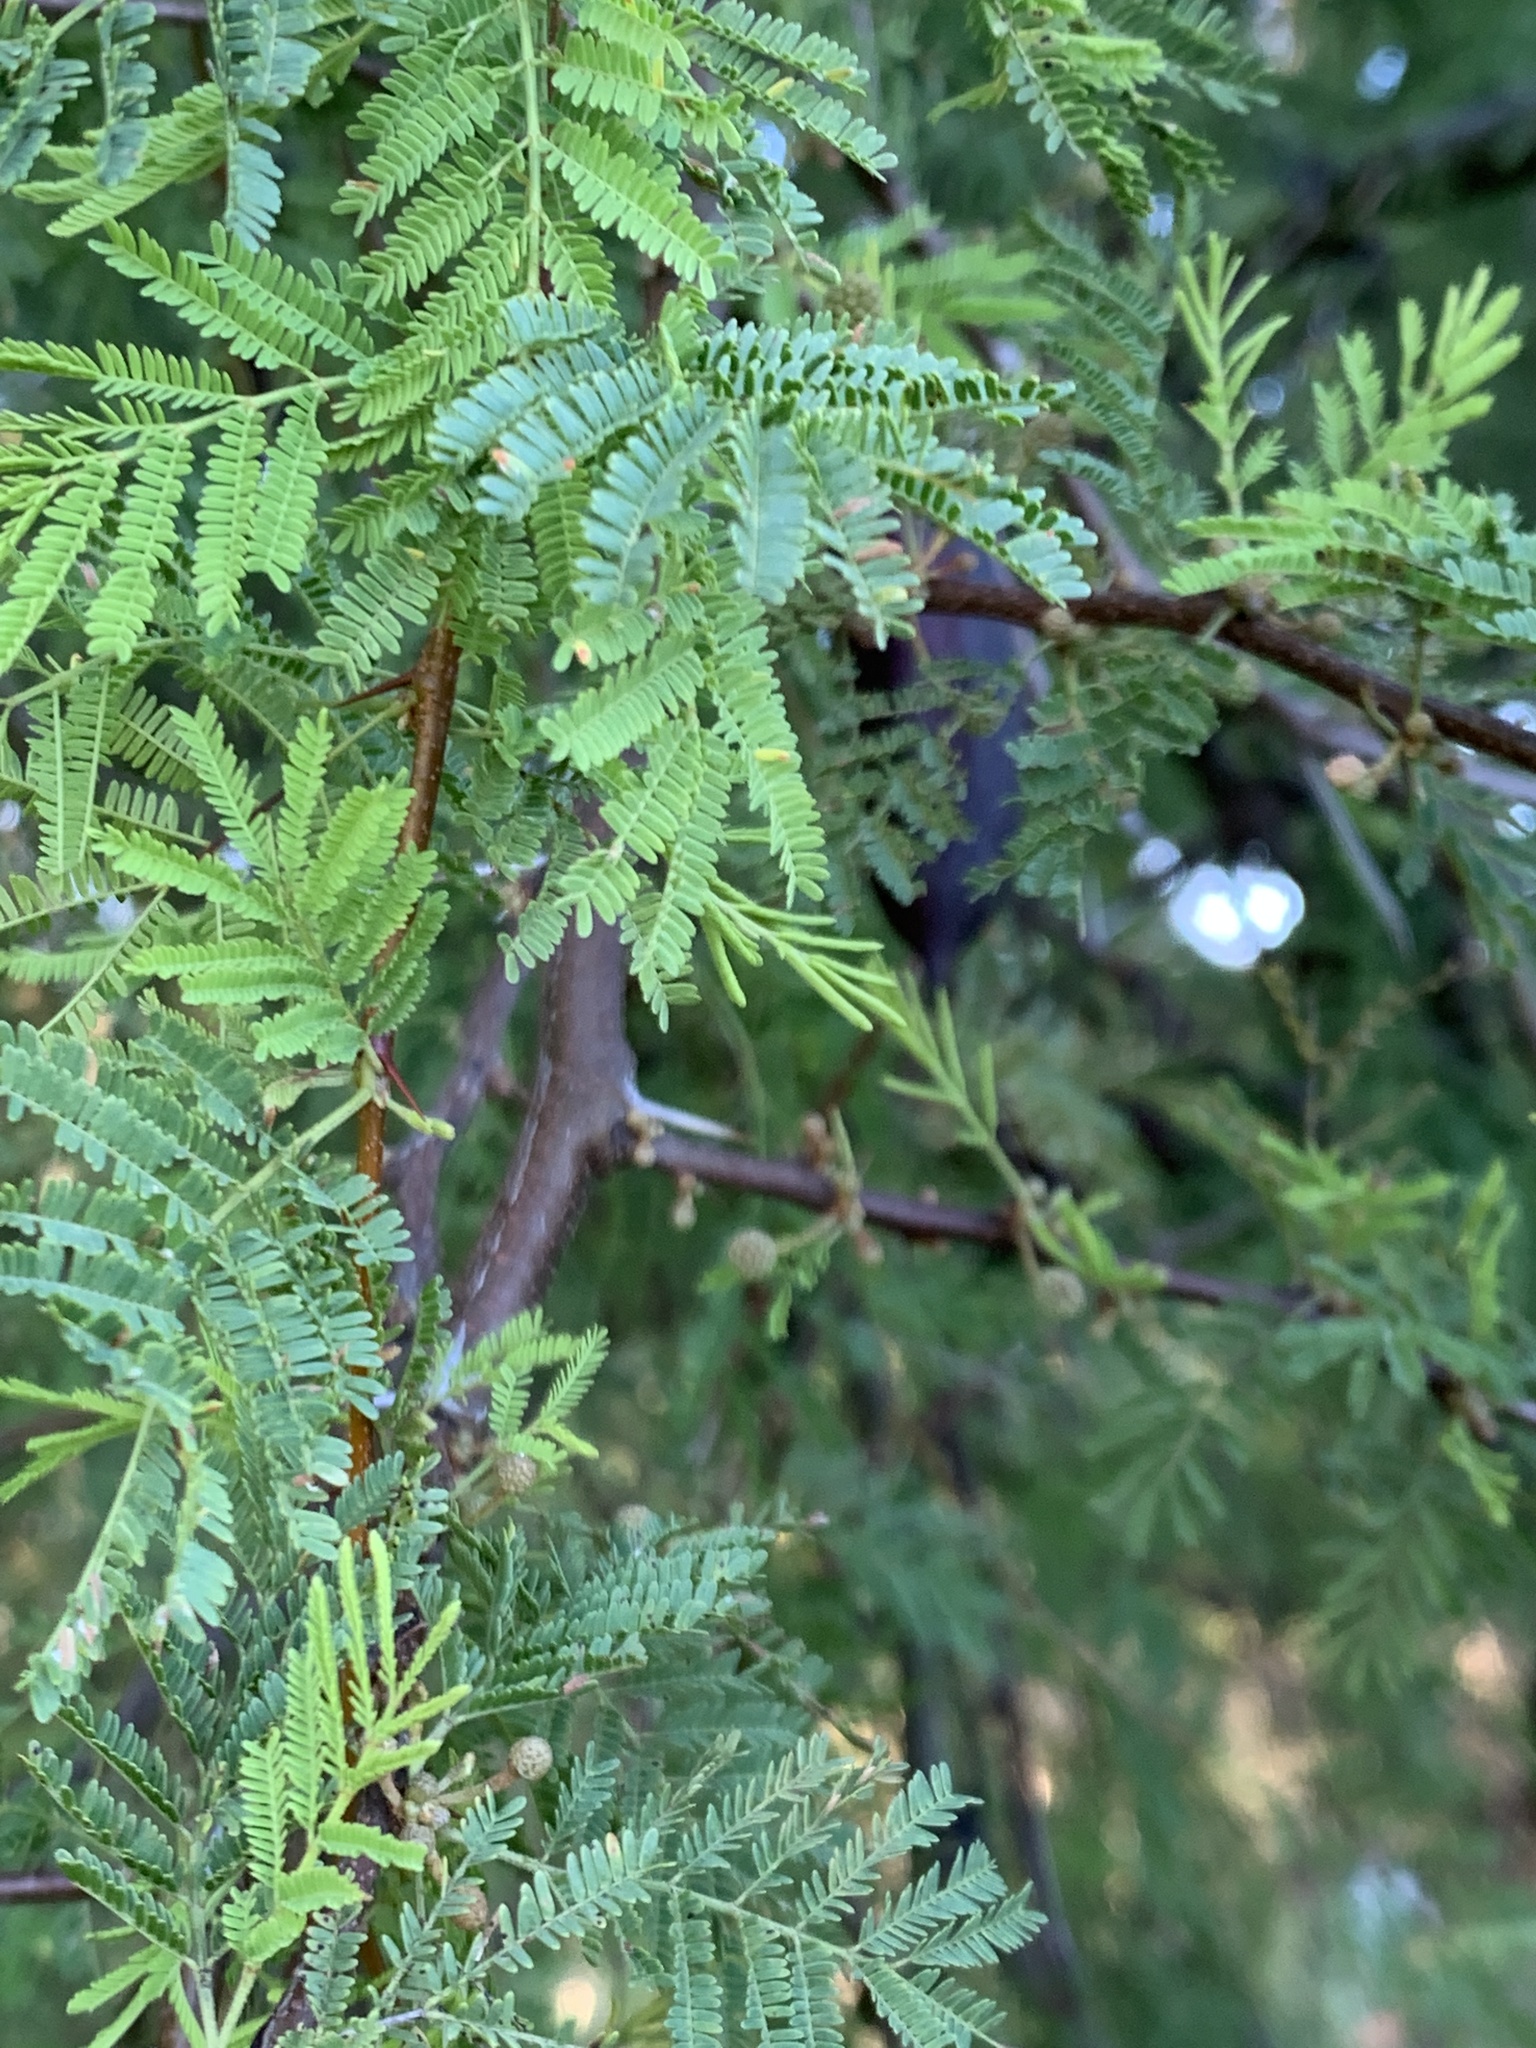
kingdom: Plantae
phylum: Tracheophyta
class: Magnoliopsida
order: Fabales
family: Fabaceae
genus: Vachellia
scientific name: Vachellia caven
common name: Roman cassie
